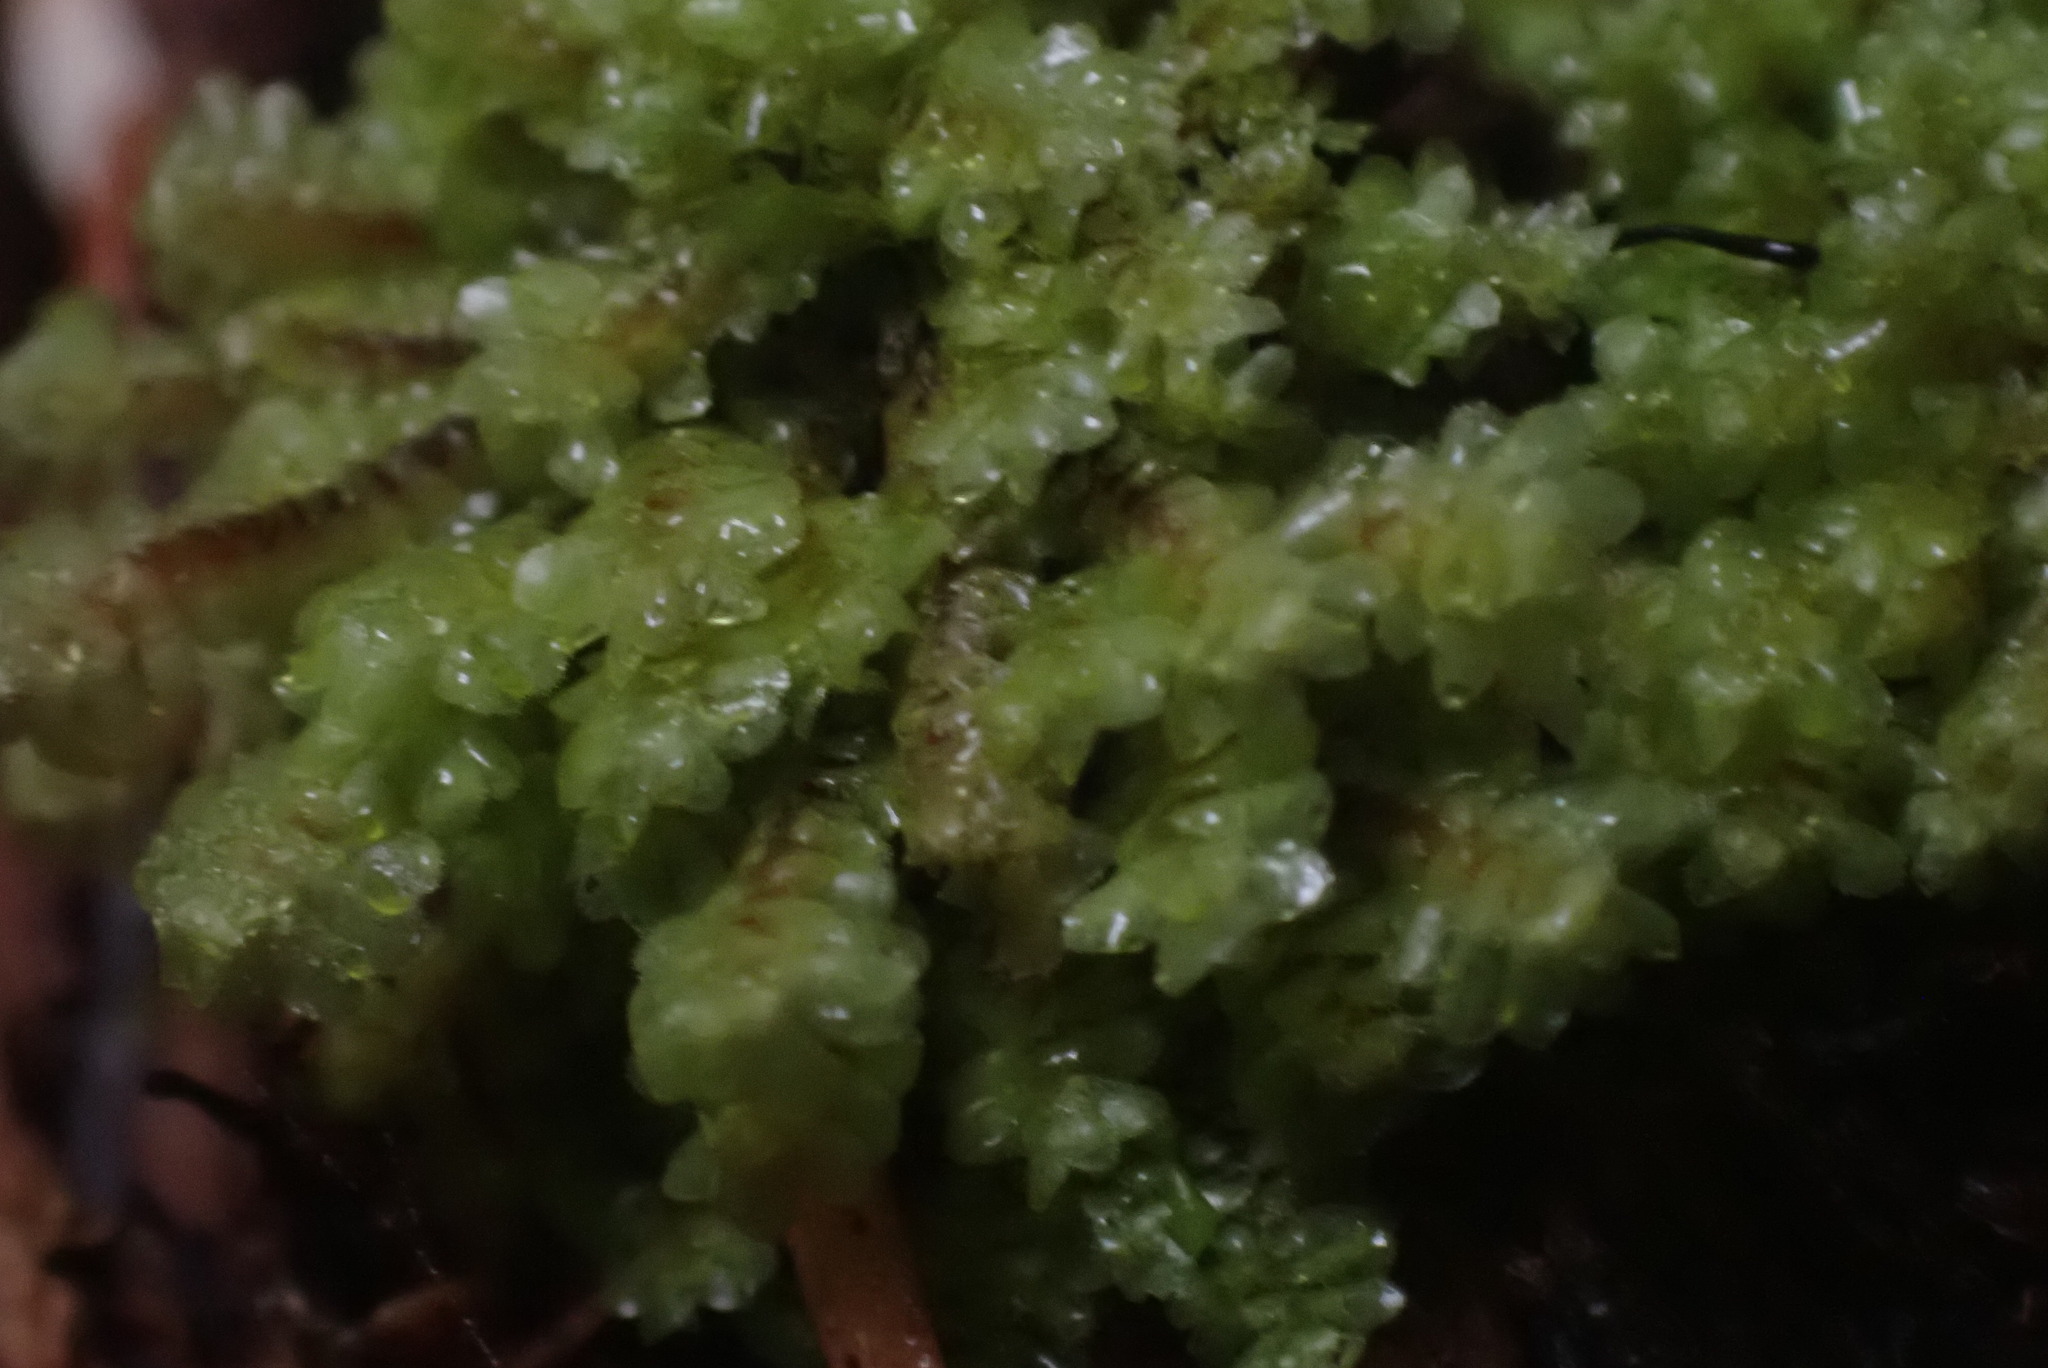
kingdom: Plantae
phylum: Marchantiophyta
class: Jungermanniopsida
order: Jungermanniales
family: Scapaniaceae
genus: Scapania
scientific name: Scapania bolanderi
